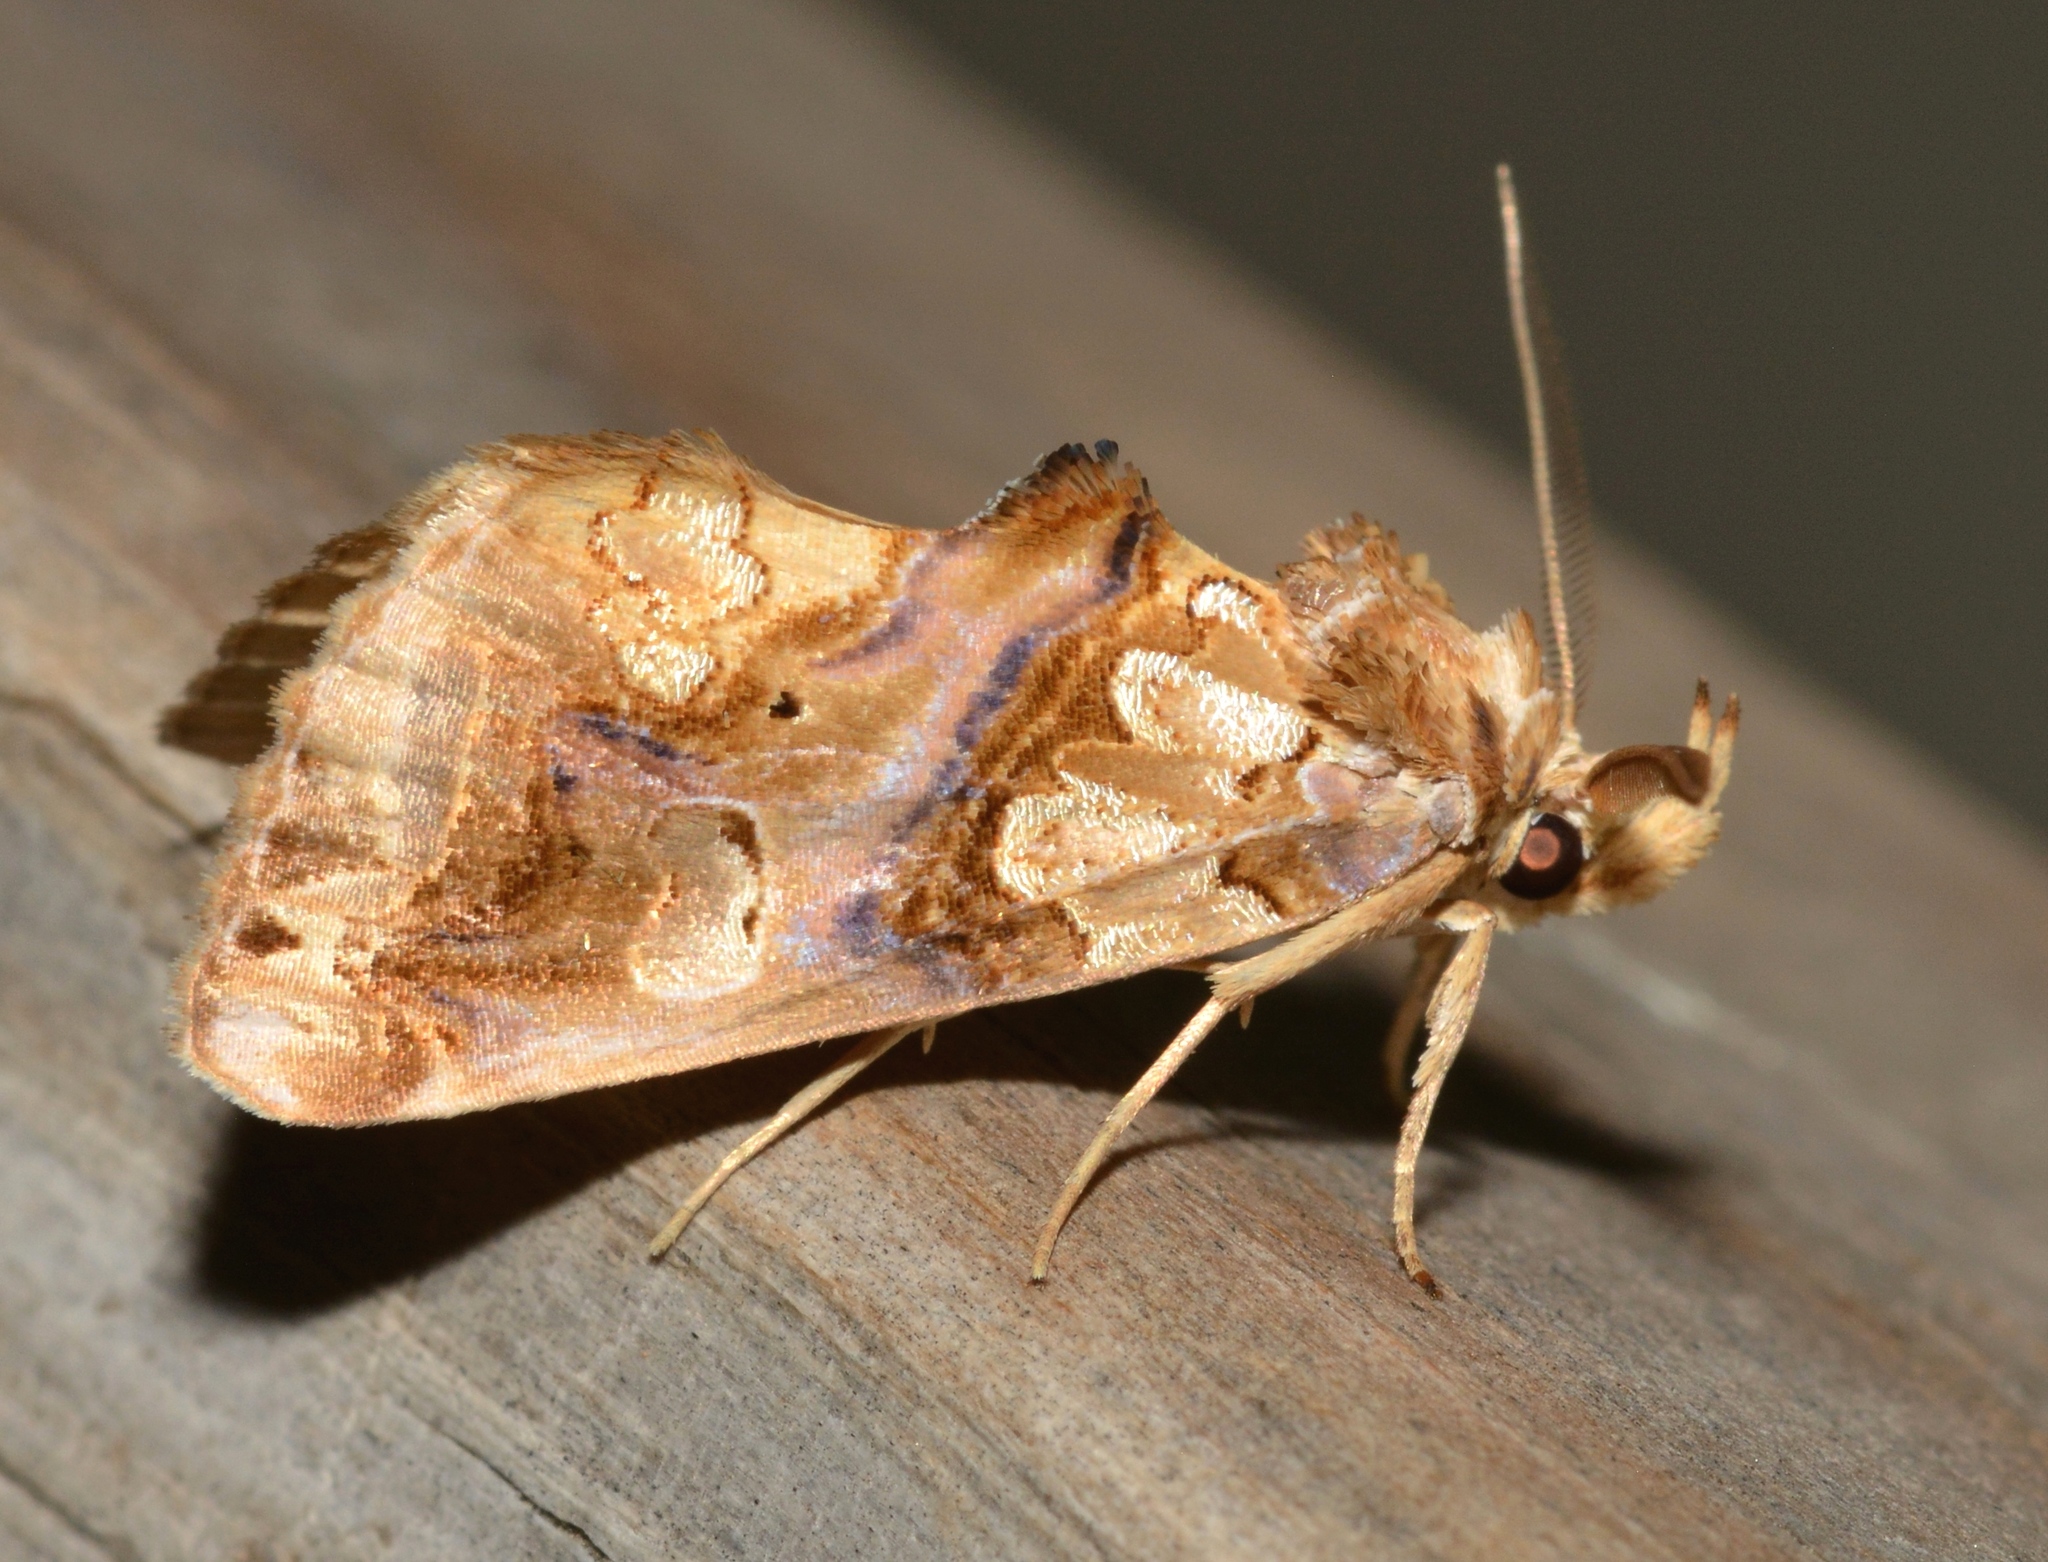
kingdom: Animalia
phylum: Arthropoda
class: Insecta
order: Lepidoptera
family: Erebidae
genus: Plusiodonta
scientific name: Plusiodonta compressipalpis
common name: Moonseed moth
